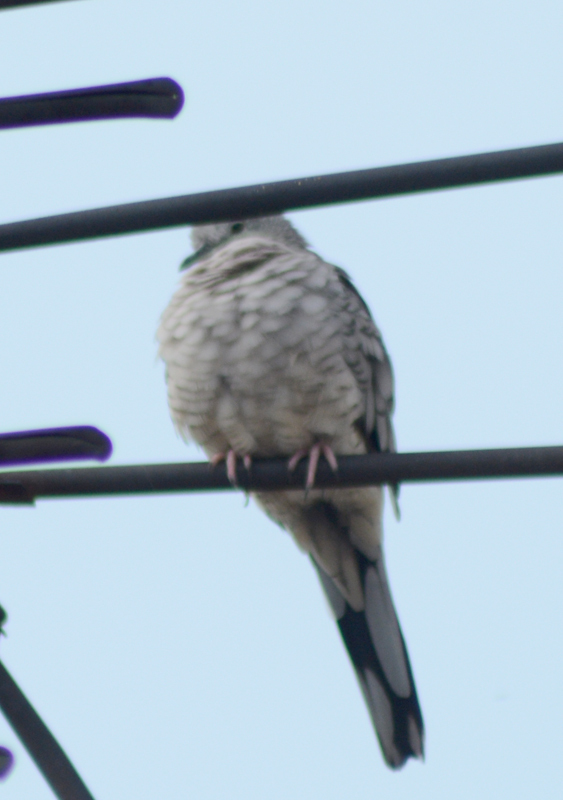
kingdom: Animalia
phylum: Chordata
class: Aves
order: Columbiformes
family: Columbidae
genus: Columbina
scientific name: Columbina inca
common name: Inca dove
